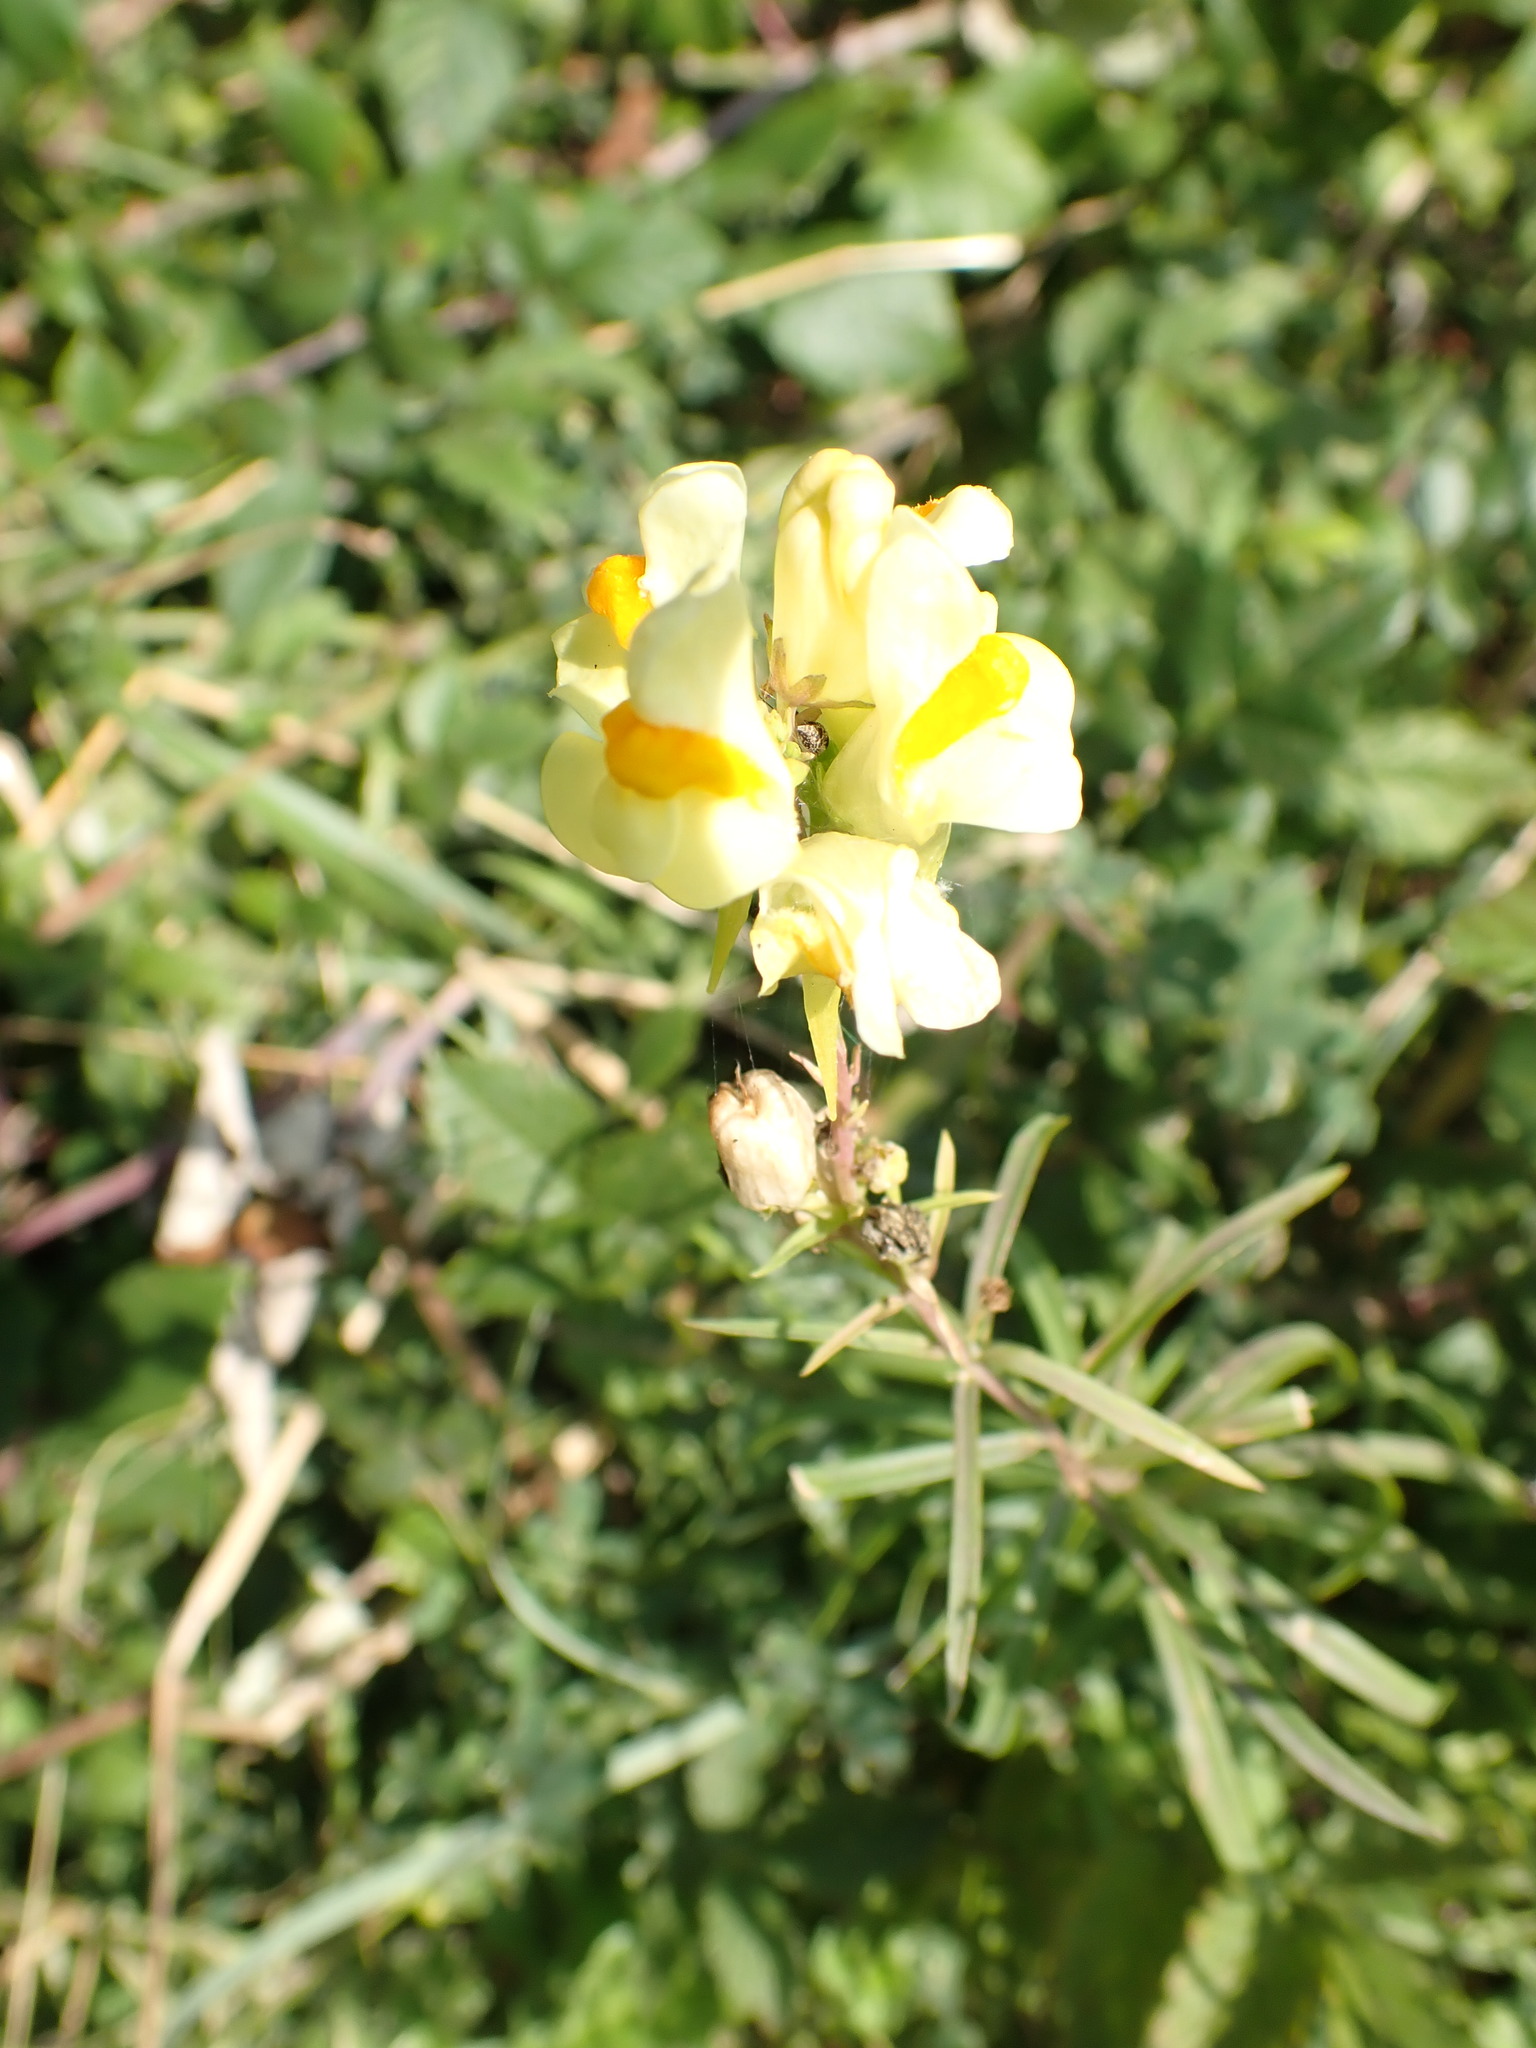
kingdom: Plantae
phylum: Tracheophyta
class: Magnoliopsida
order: Lamiales
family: Plantaginaceae
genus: Linaria
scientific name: Linaria vulgaris
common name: Butter and eggs
